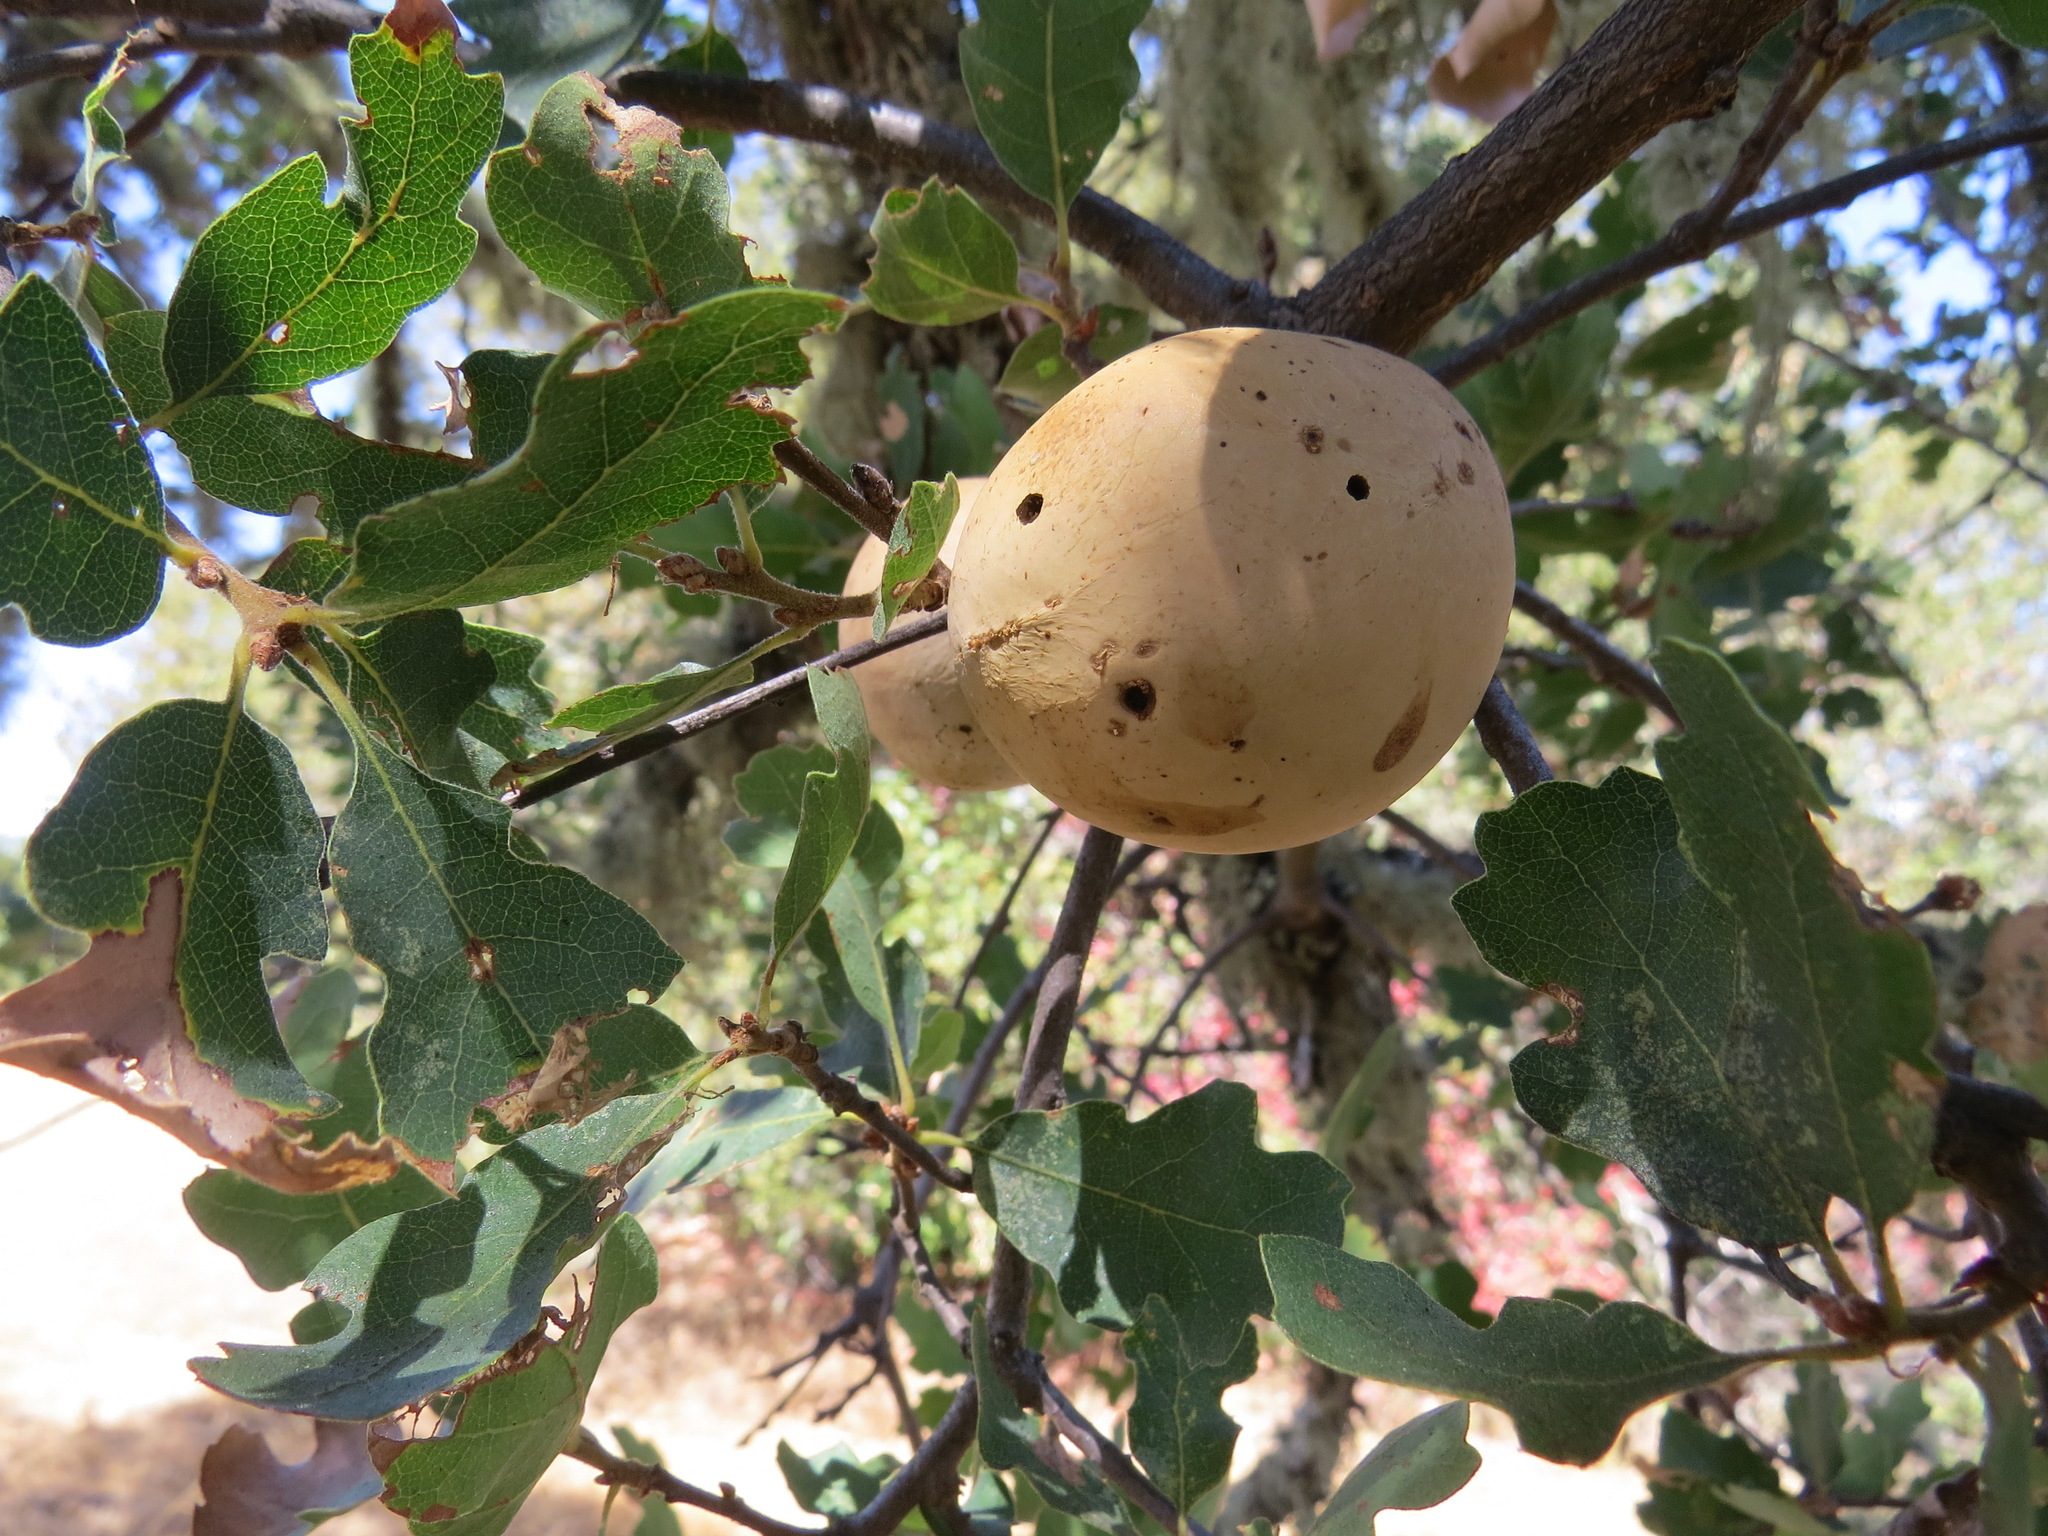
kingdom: Animalia
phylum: Arthropoda
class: Insecta
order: Hymenoptera
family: Cynipidae
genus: Andricus
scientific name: Andricus quercuscalifornicus
